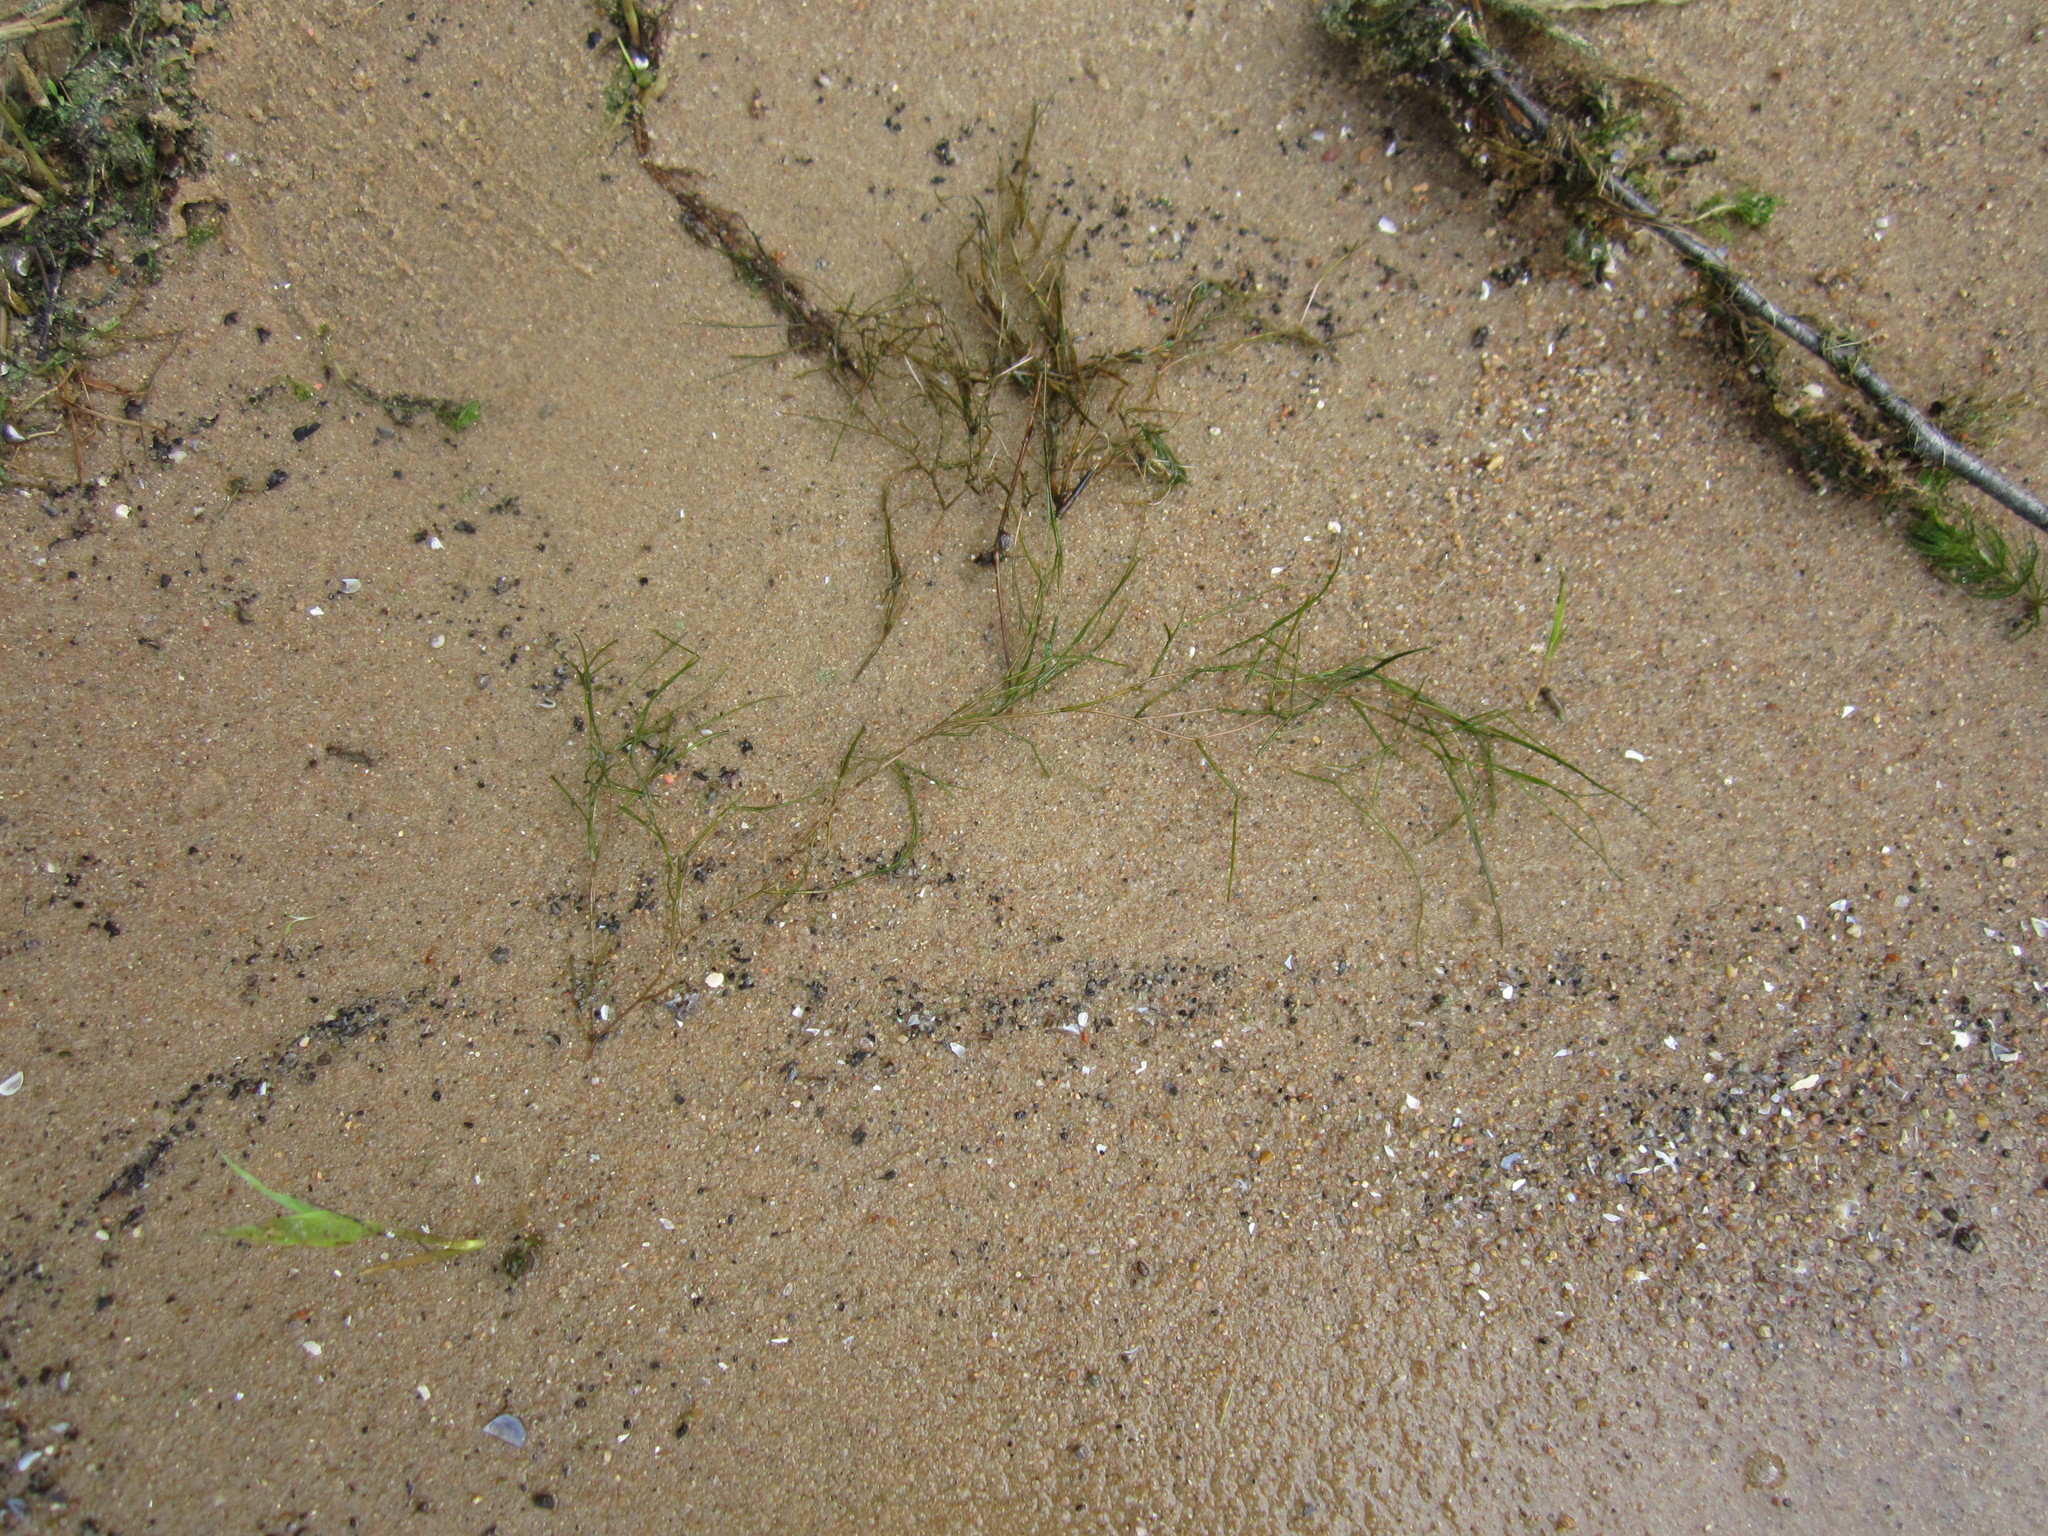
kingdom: Plantae
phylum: Tracheophyta
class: Liliopsida
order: Alismatales
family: Potamogetonaceae
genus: Stuckenia
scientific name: Stuckenia pectinata
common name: Sago pondweed
